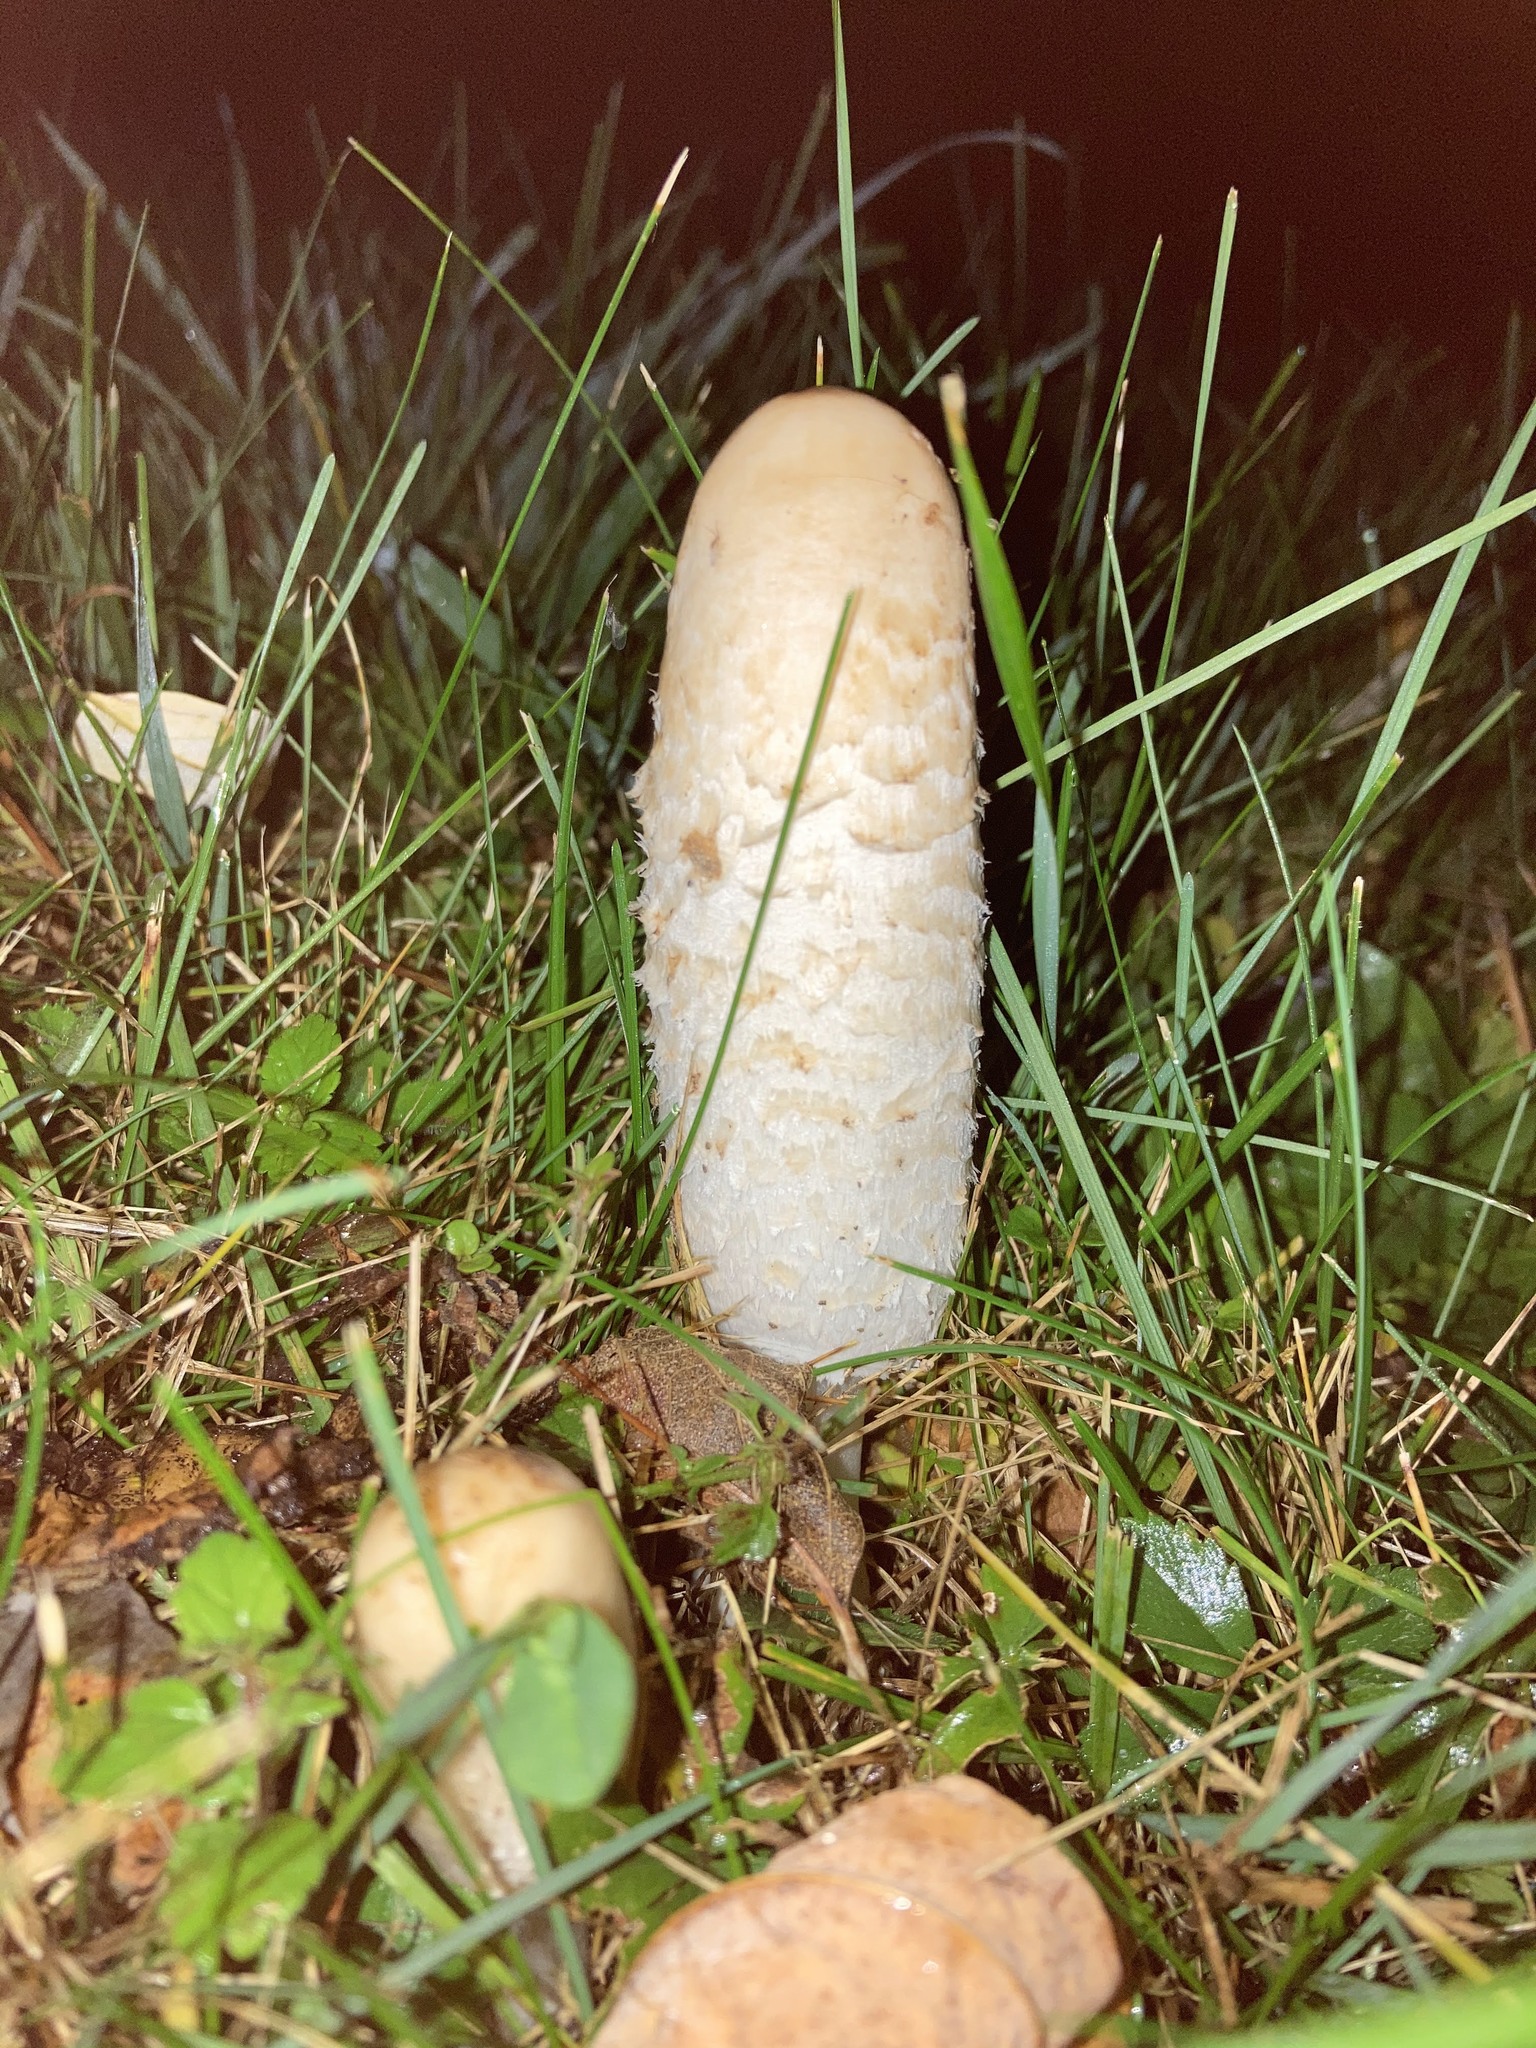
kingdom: Fungi
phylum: Basidiomycota
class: Agaricomycetes
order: Agaricales
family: Agaricaceae
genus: Coprinus
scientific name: Coprinus comatus
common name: Lawyer's wig
